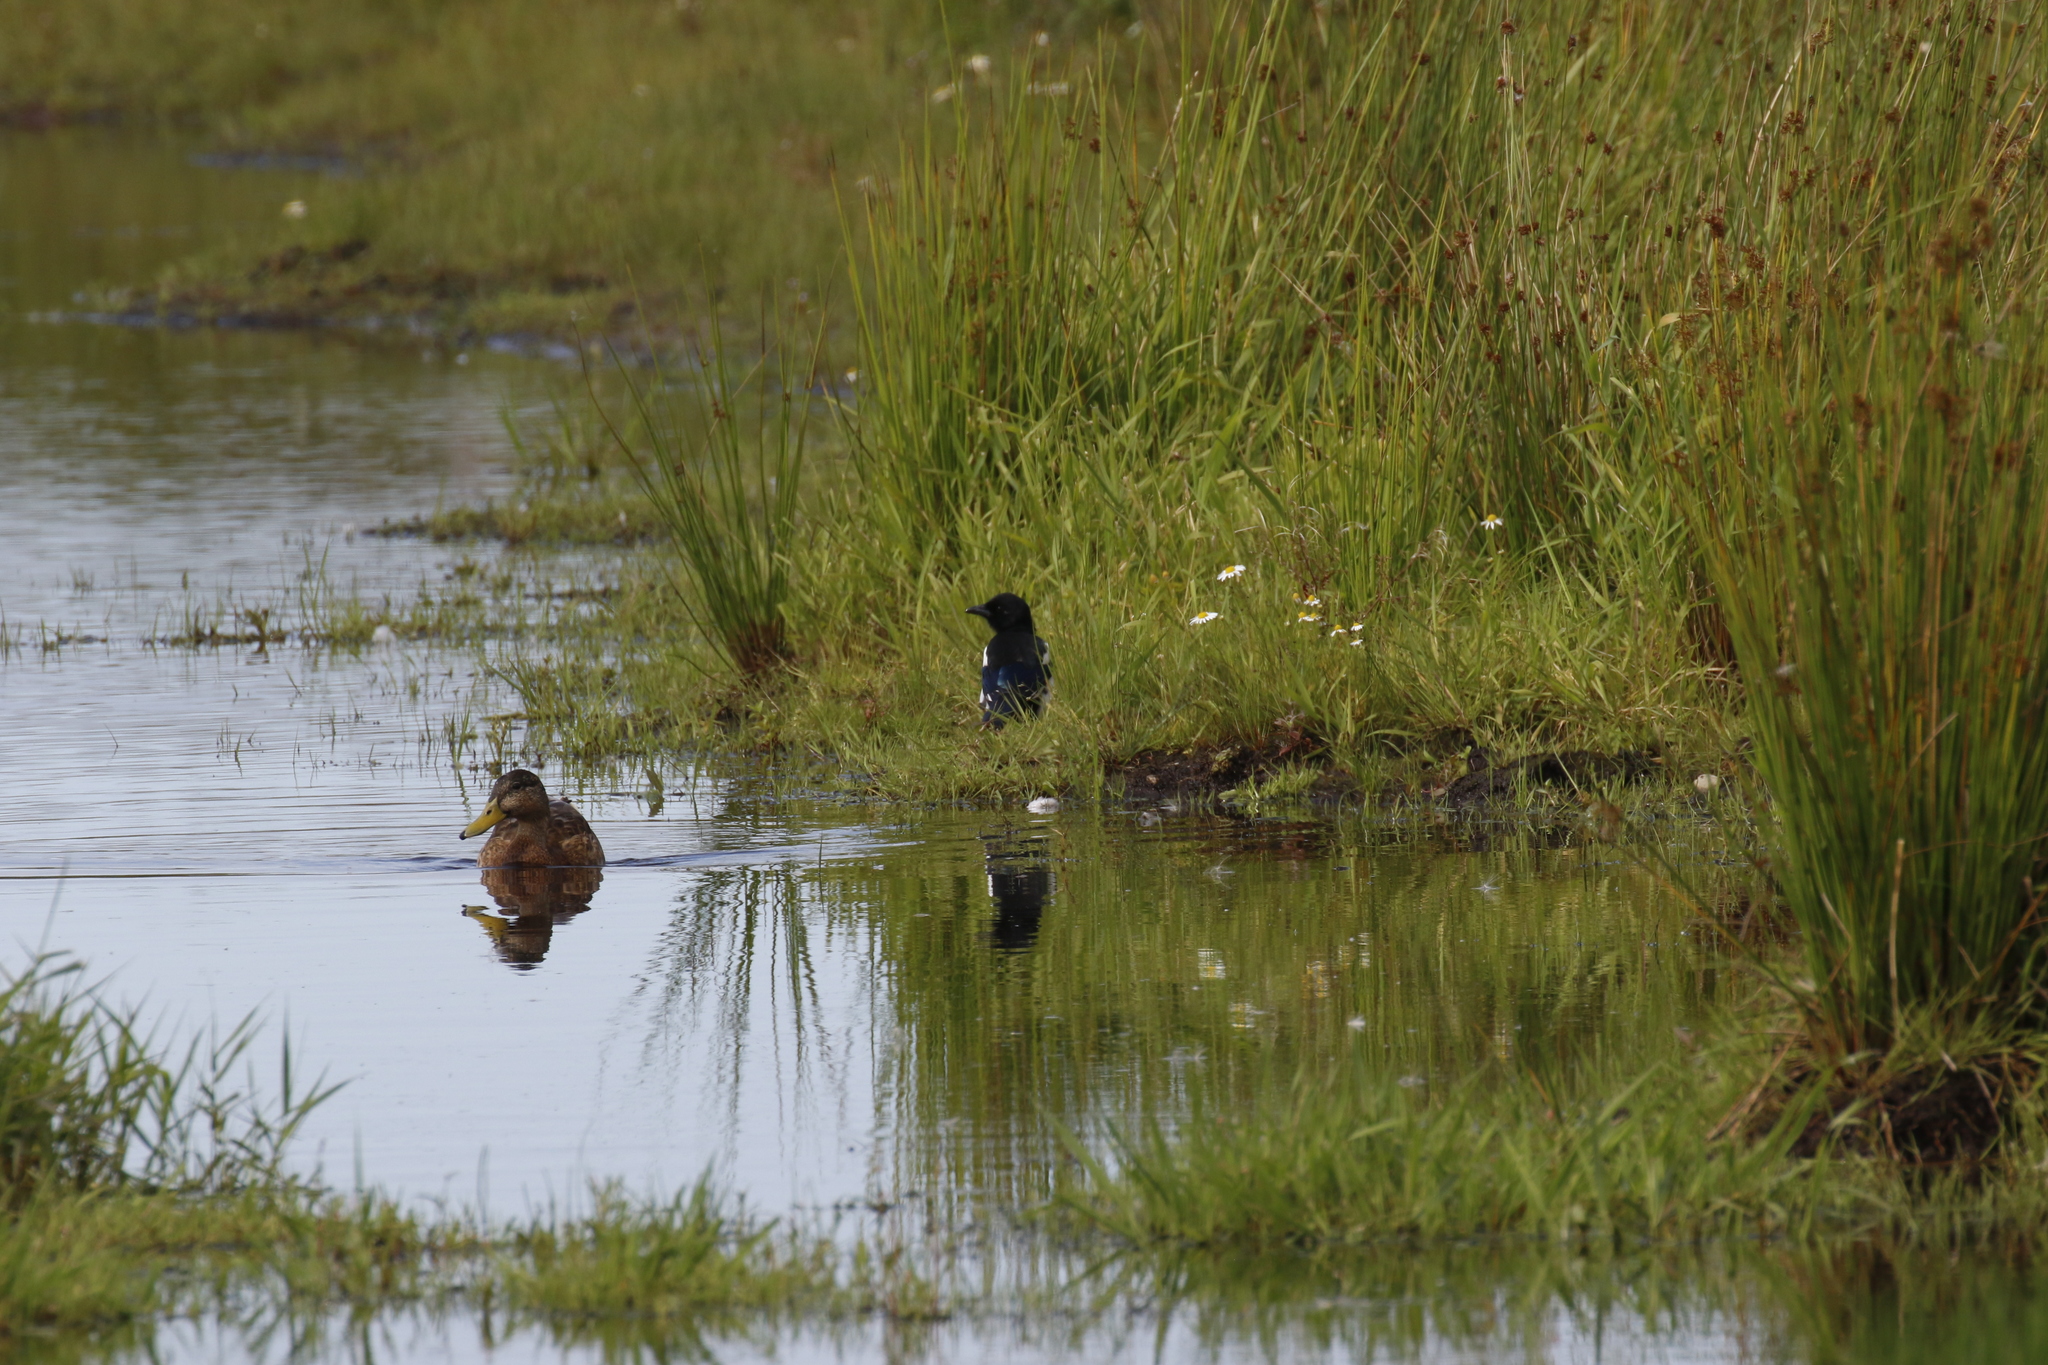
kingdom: Animalia
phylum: Chordata
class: Aves
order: Passeriformes
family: Corvidae
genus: Pica
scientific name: Pica pica
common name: Eurasian magpie
